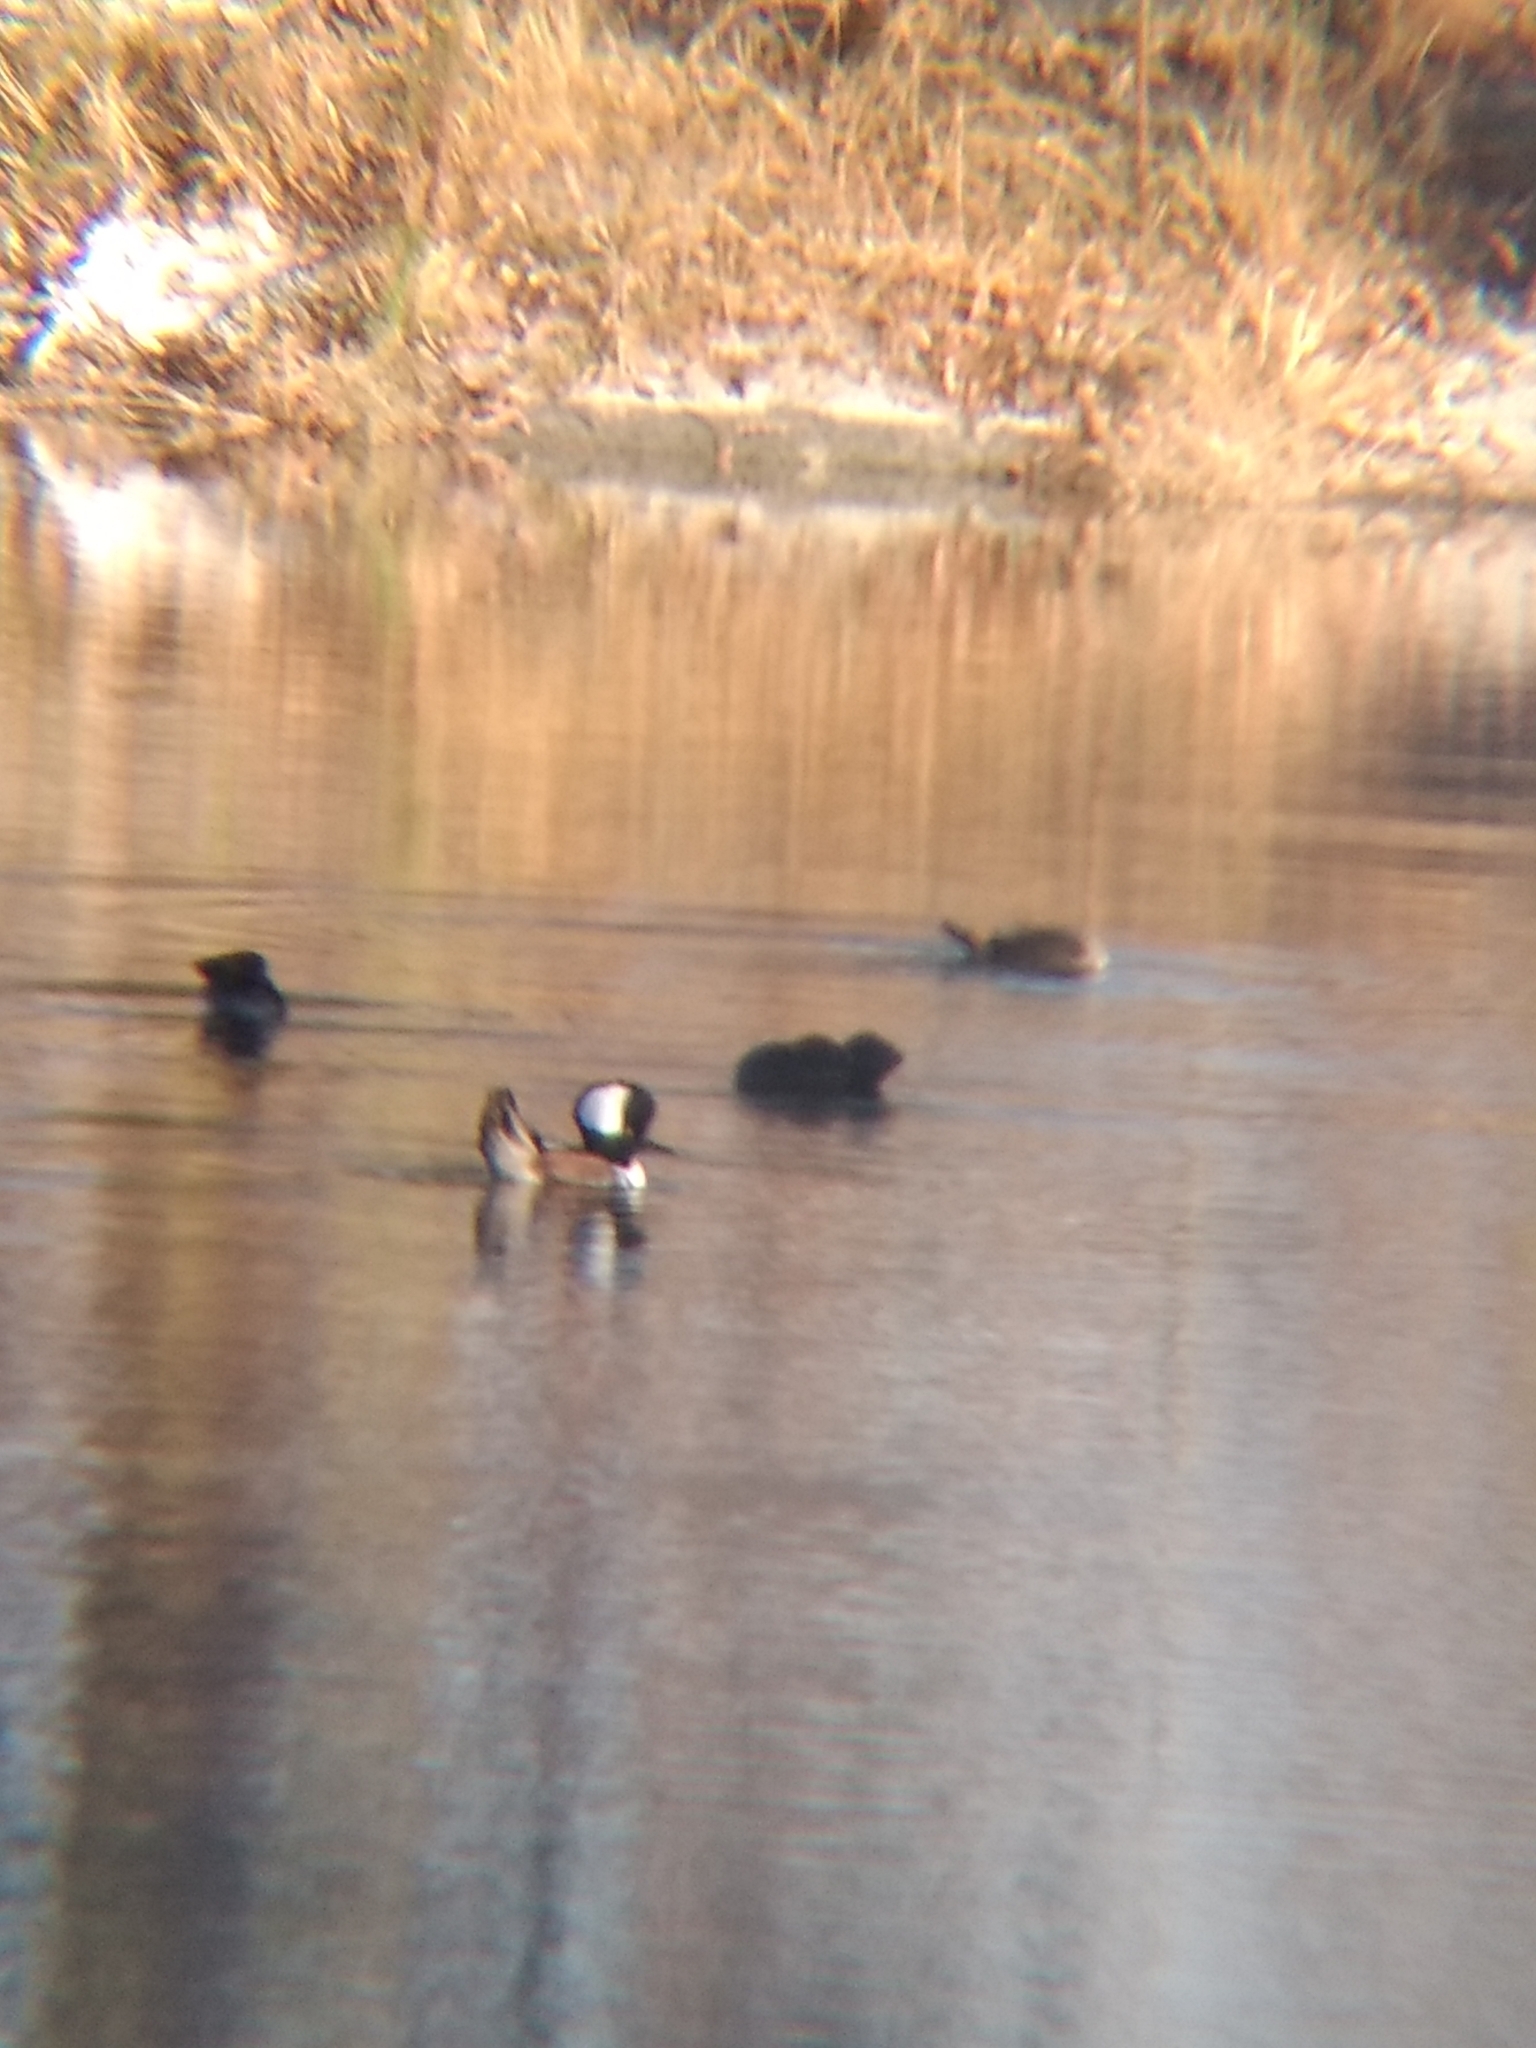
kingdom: Animalia
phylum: Chordata
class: Aves
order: Anseriformes
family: Anatidae
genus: Lophodytes
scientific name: Lophodytes cucullatus
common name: Hooded merganser
